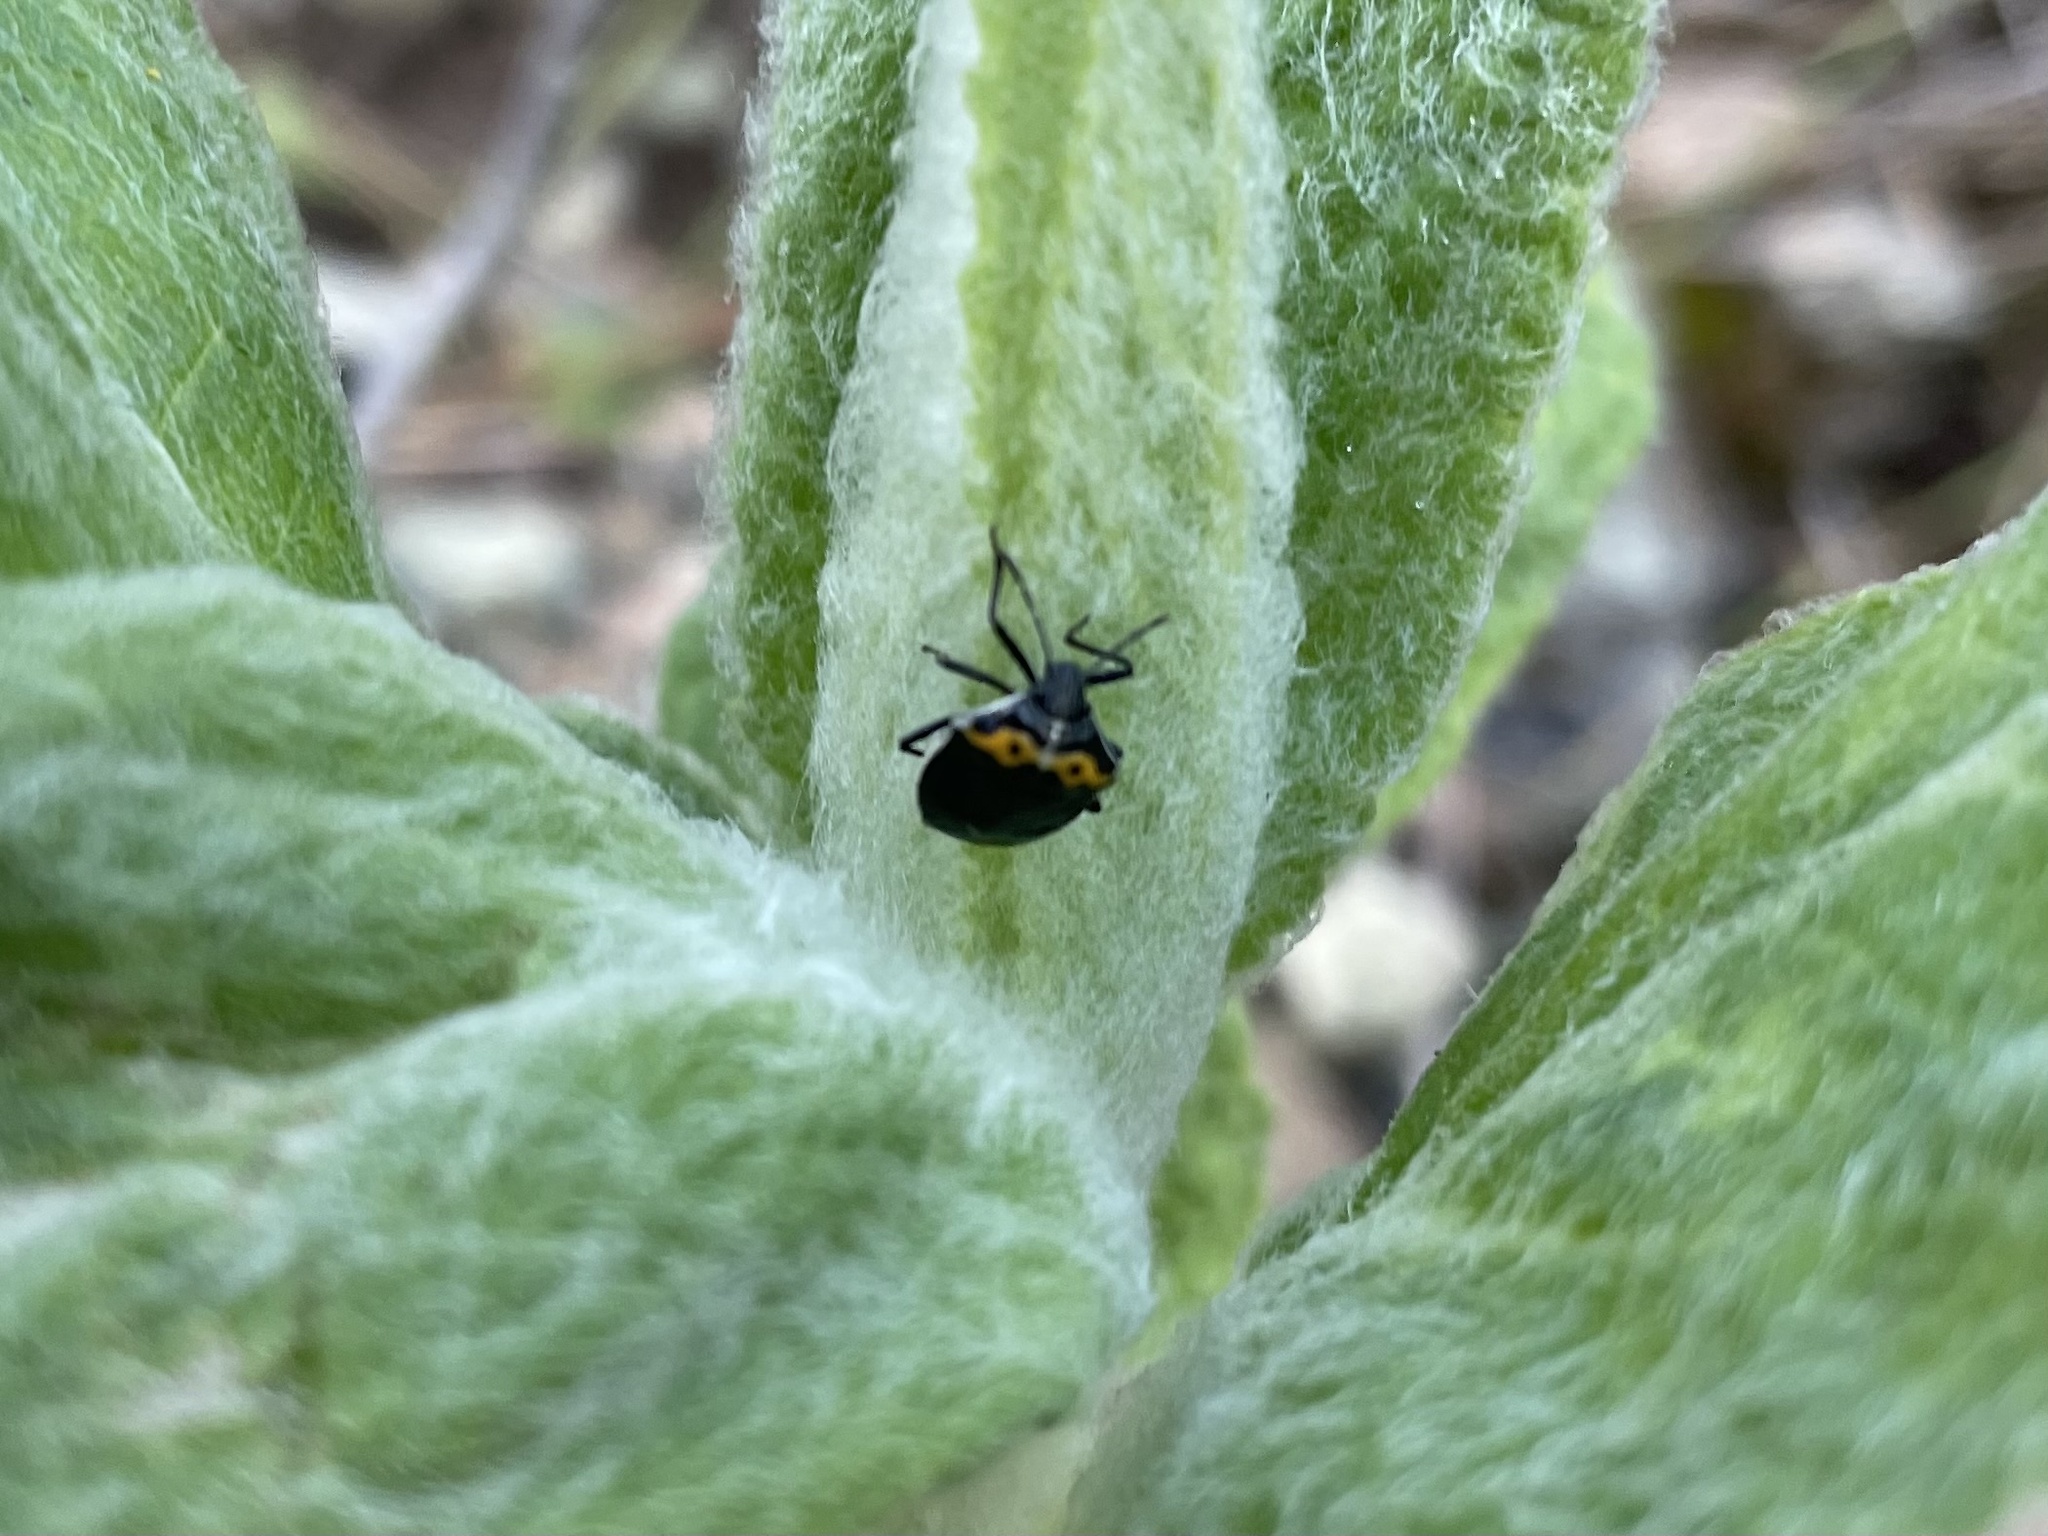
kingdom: Animalia
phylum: Arthropoda
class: Insecta
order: Hemiptera
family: Pentatomidae
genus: Cosmopepla
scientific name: Cosmopepla conspicillaris
